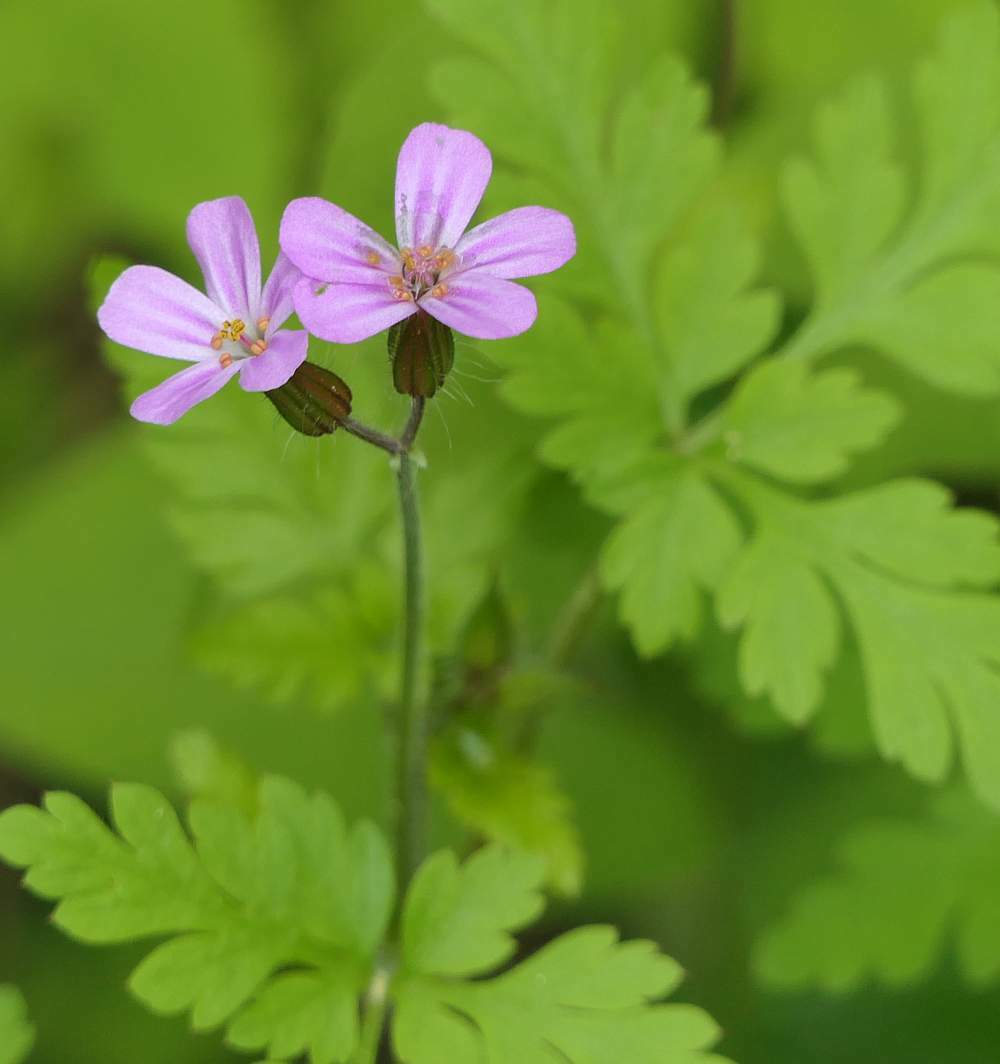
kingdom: Plantae
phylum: Tracheophyta
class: Magnoliopsida
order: Geraniales
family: Geraniaceae
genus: Geranium
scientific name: Geranium robertianum
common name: Herb-robert
